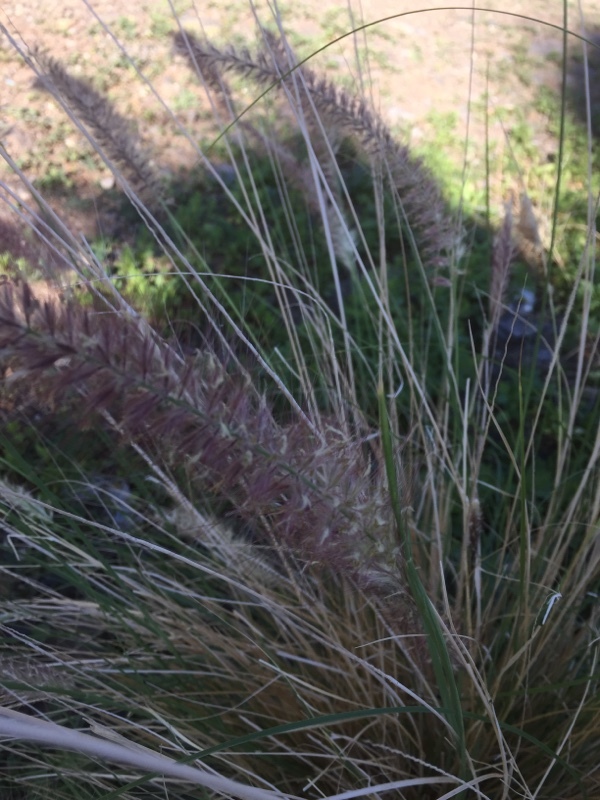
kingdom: Plantae
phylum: Tracheophyta
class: Liliopsida
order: Poales
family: Poaceae
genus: Cenchrus
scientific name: Cenchrus setaceus
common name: Crimson fountaingrass
